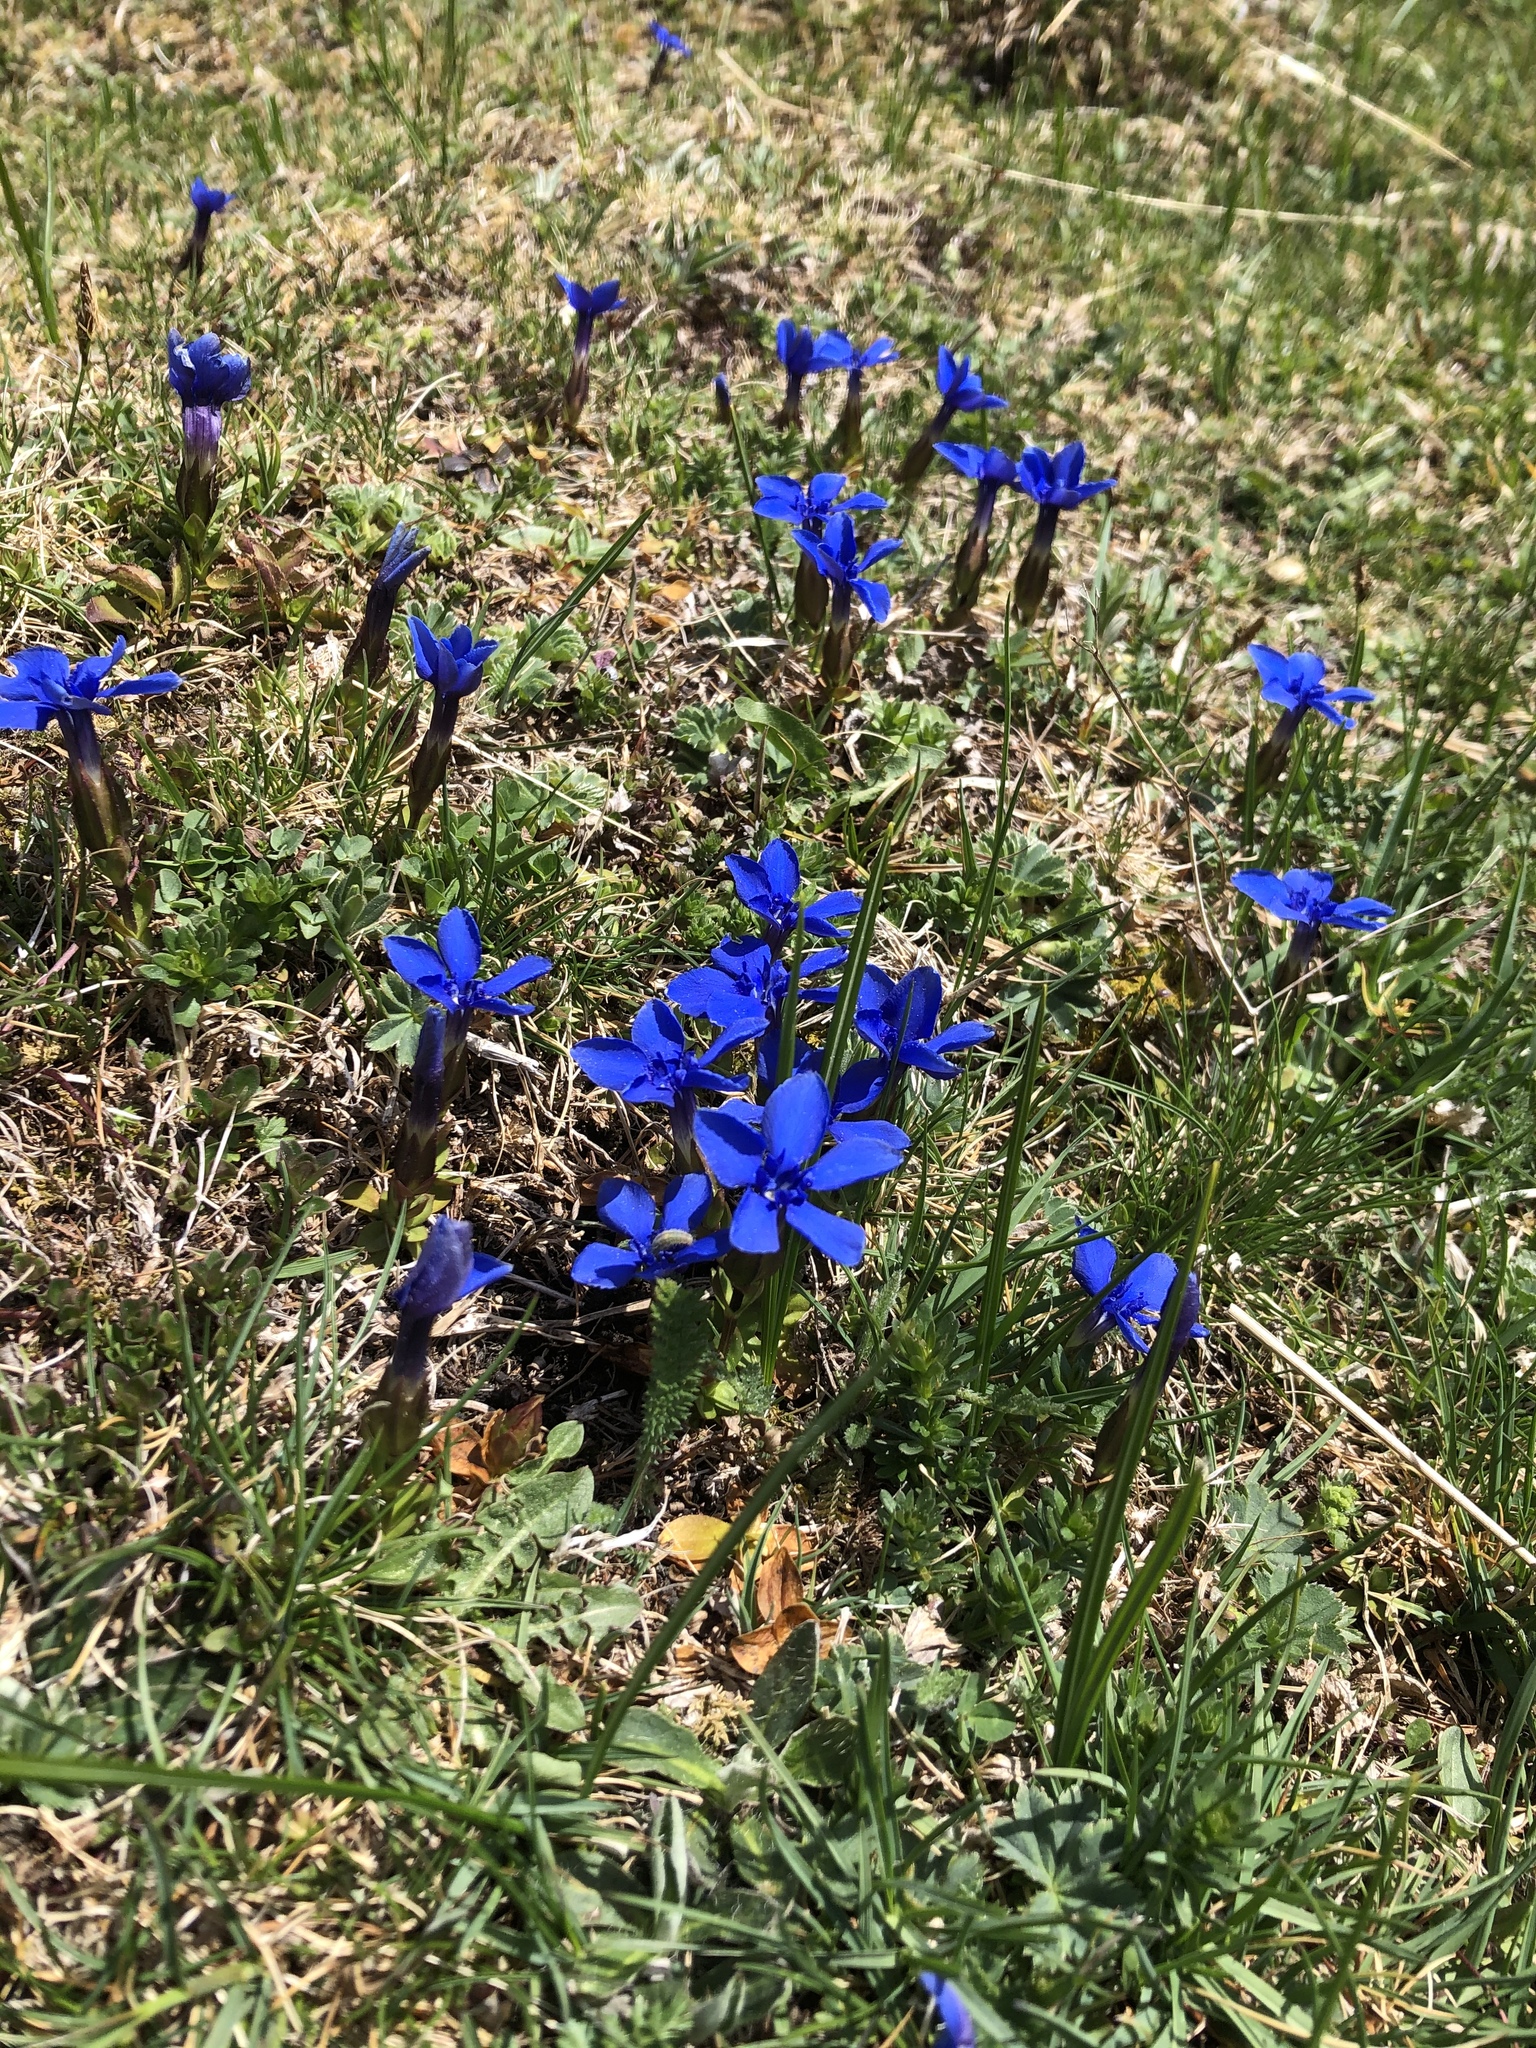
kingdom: Plantae
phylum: Tracheophyta
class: Magnoliopsida
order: Gentianales
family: Gentianaceae
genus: Gentiana
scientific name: Gentiana verna
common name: Spring gentian
